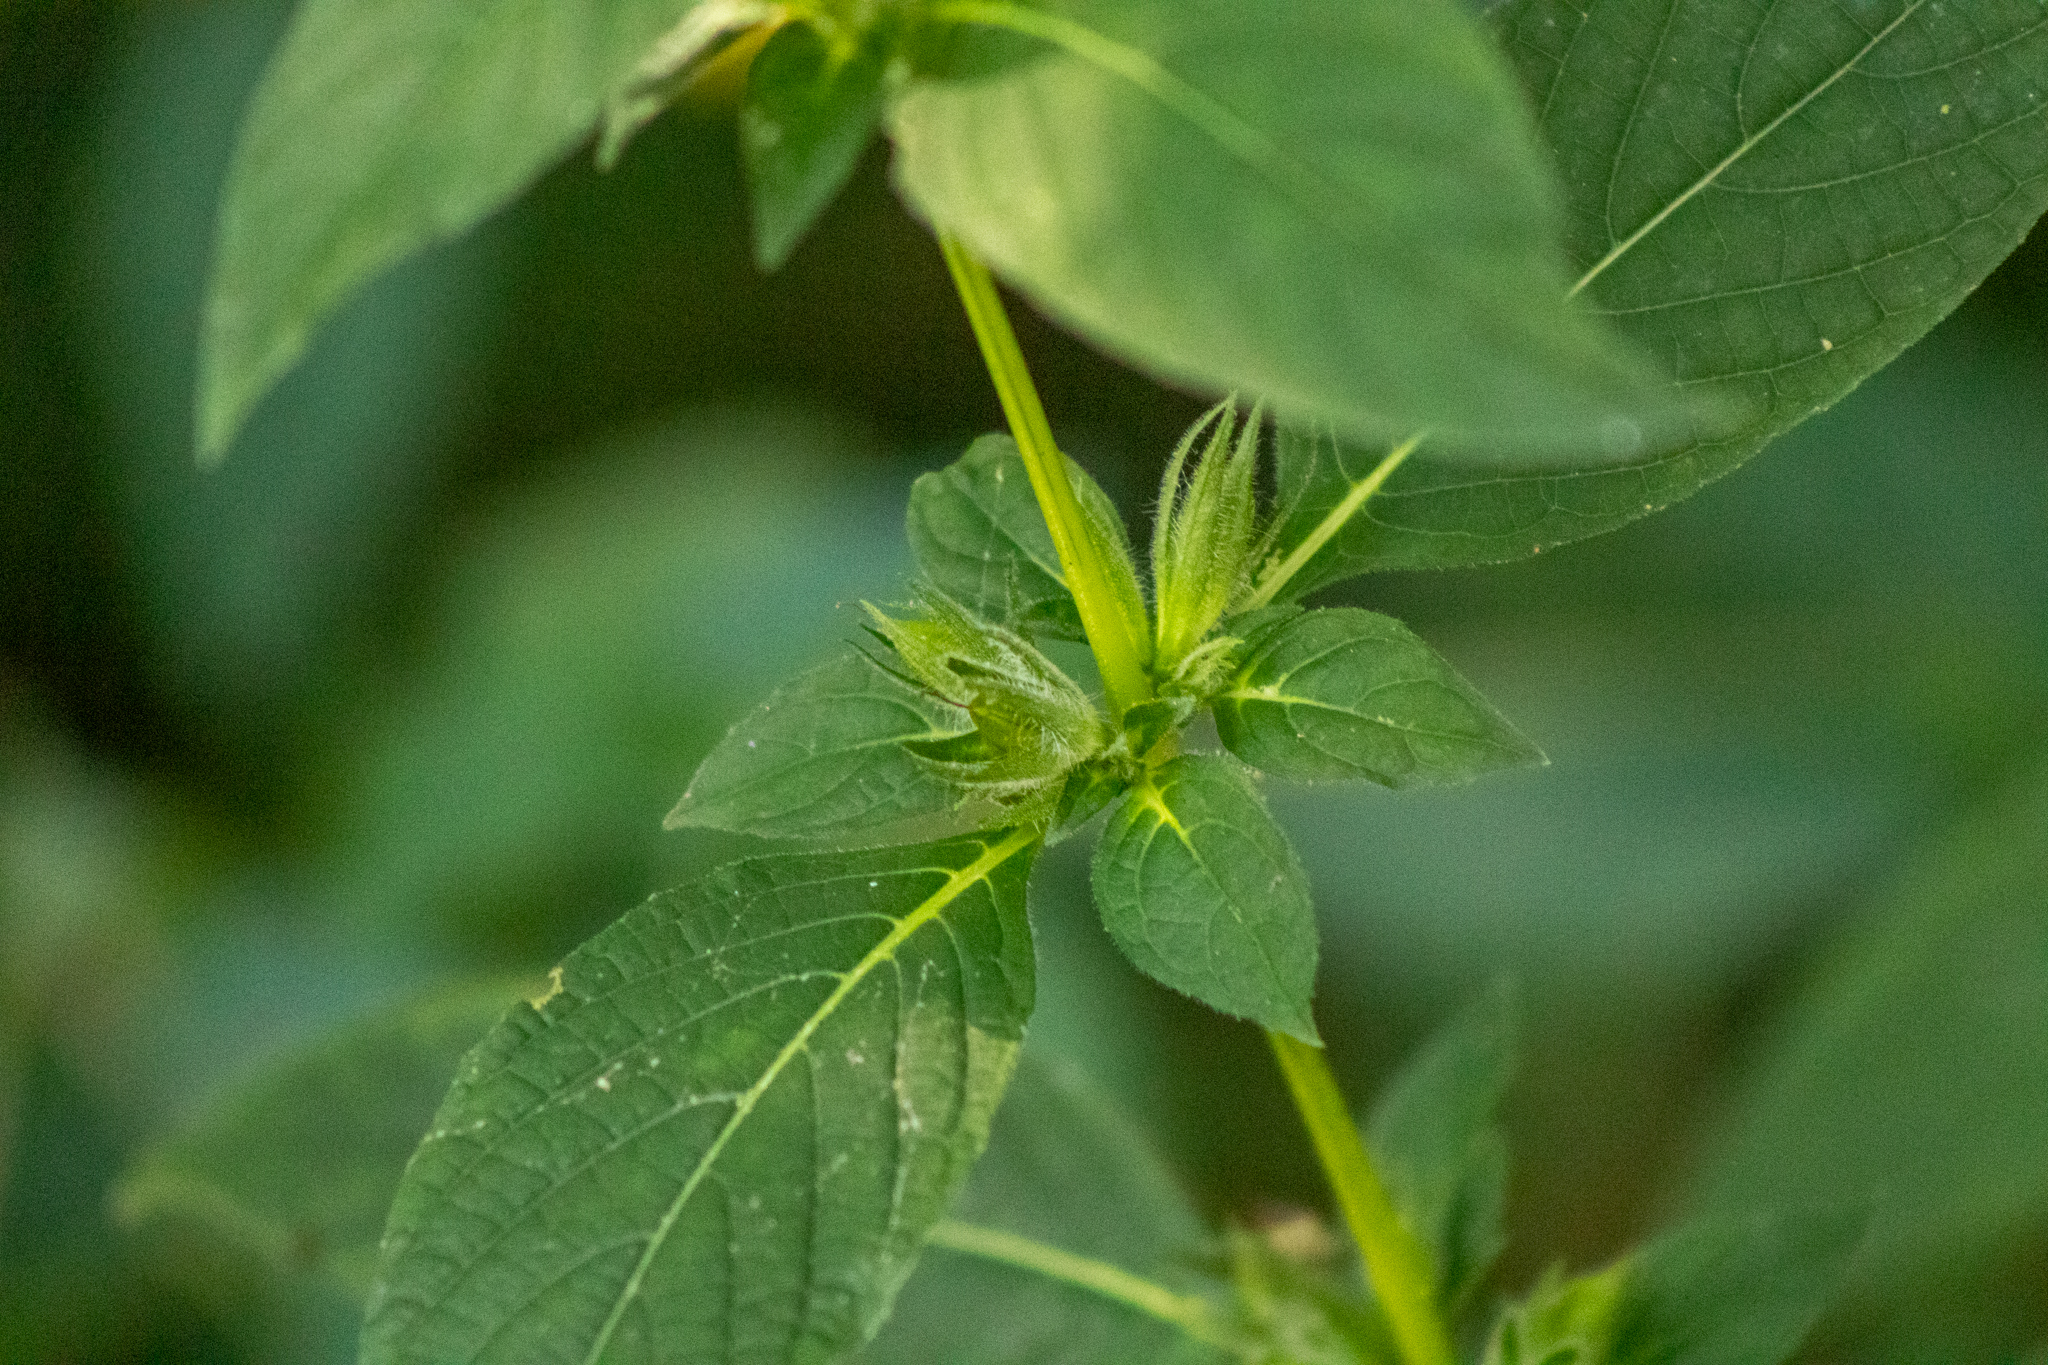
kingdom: Plantae
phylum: Tracheophyta
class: Magnoliopsida
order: Lamiales
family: Acanthaceae
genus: Ruellia
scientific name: Ruellia strepens
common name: Limestone wild petunia
